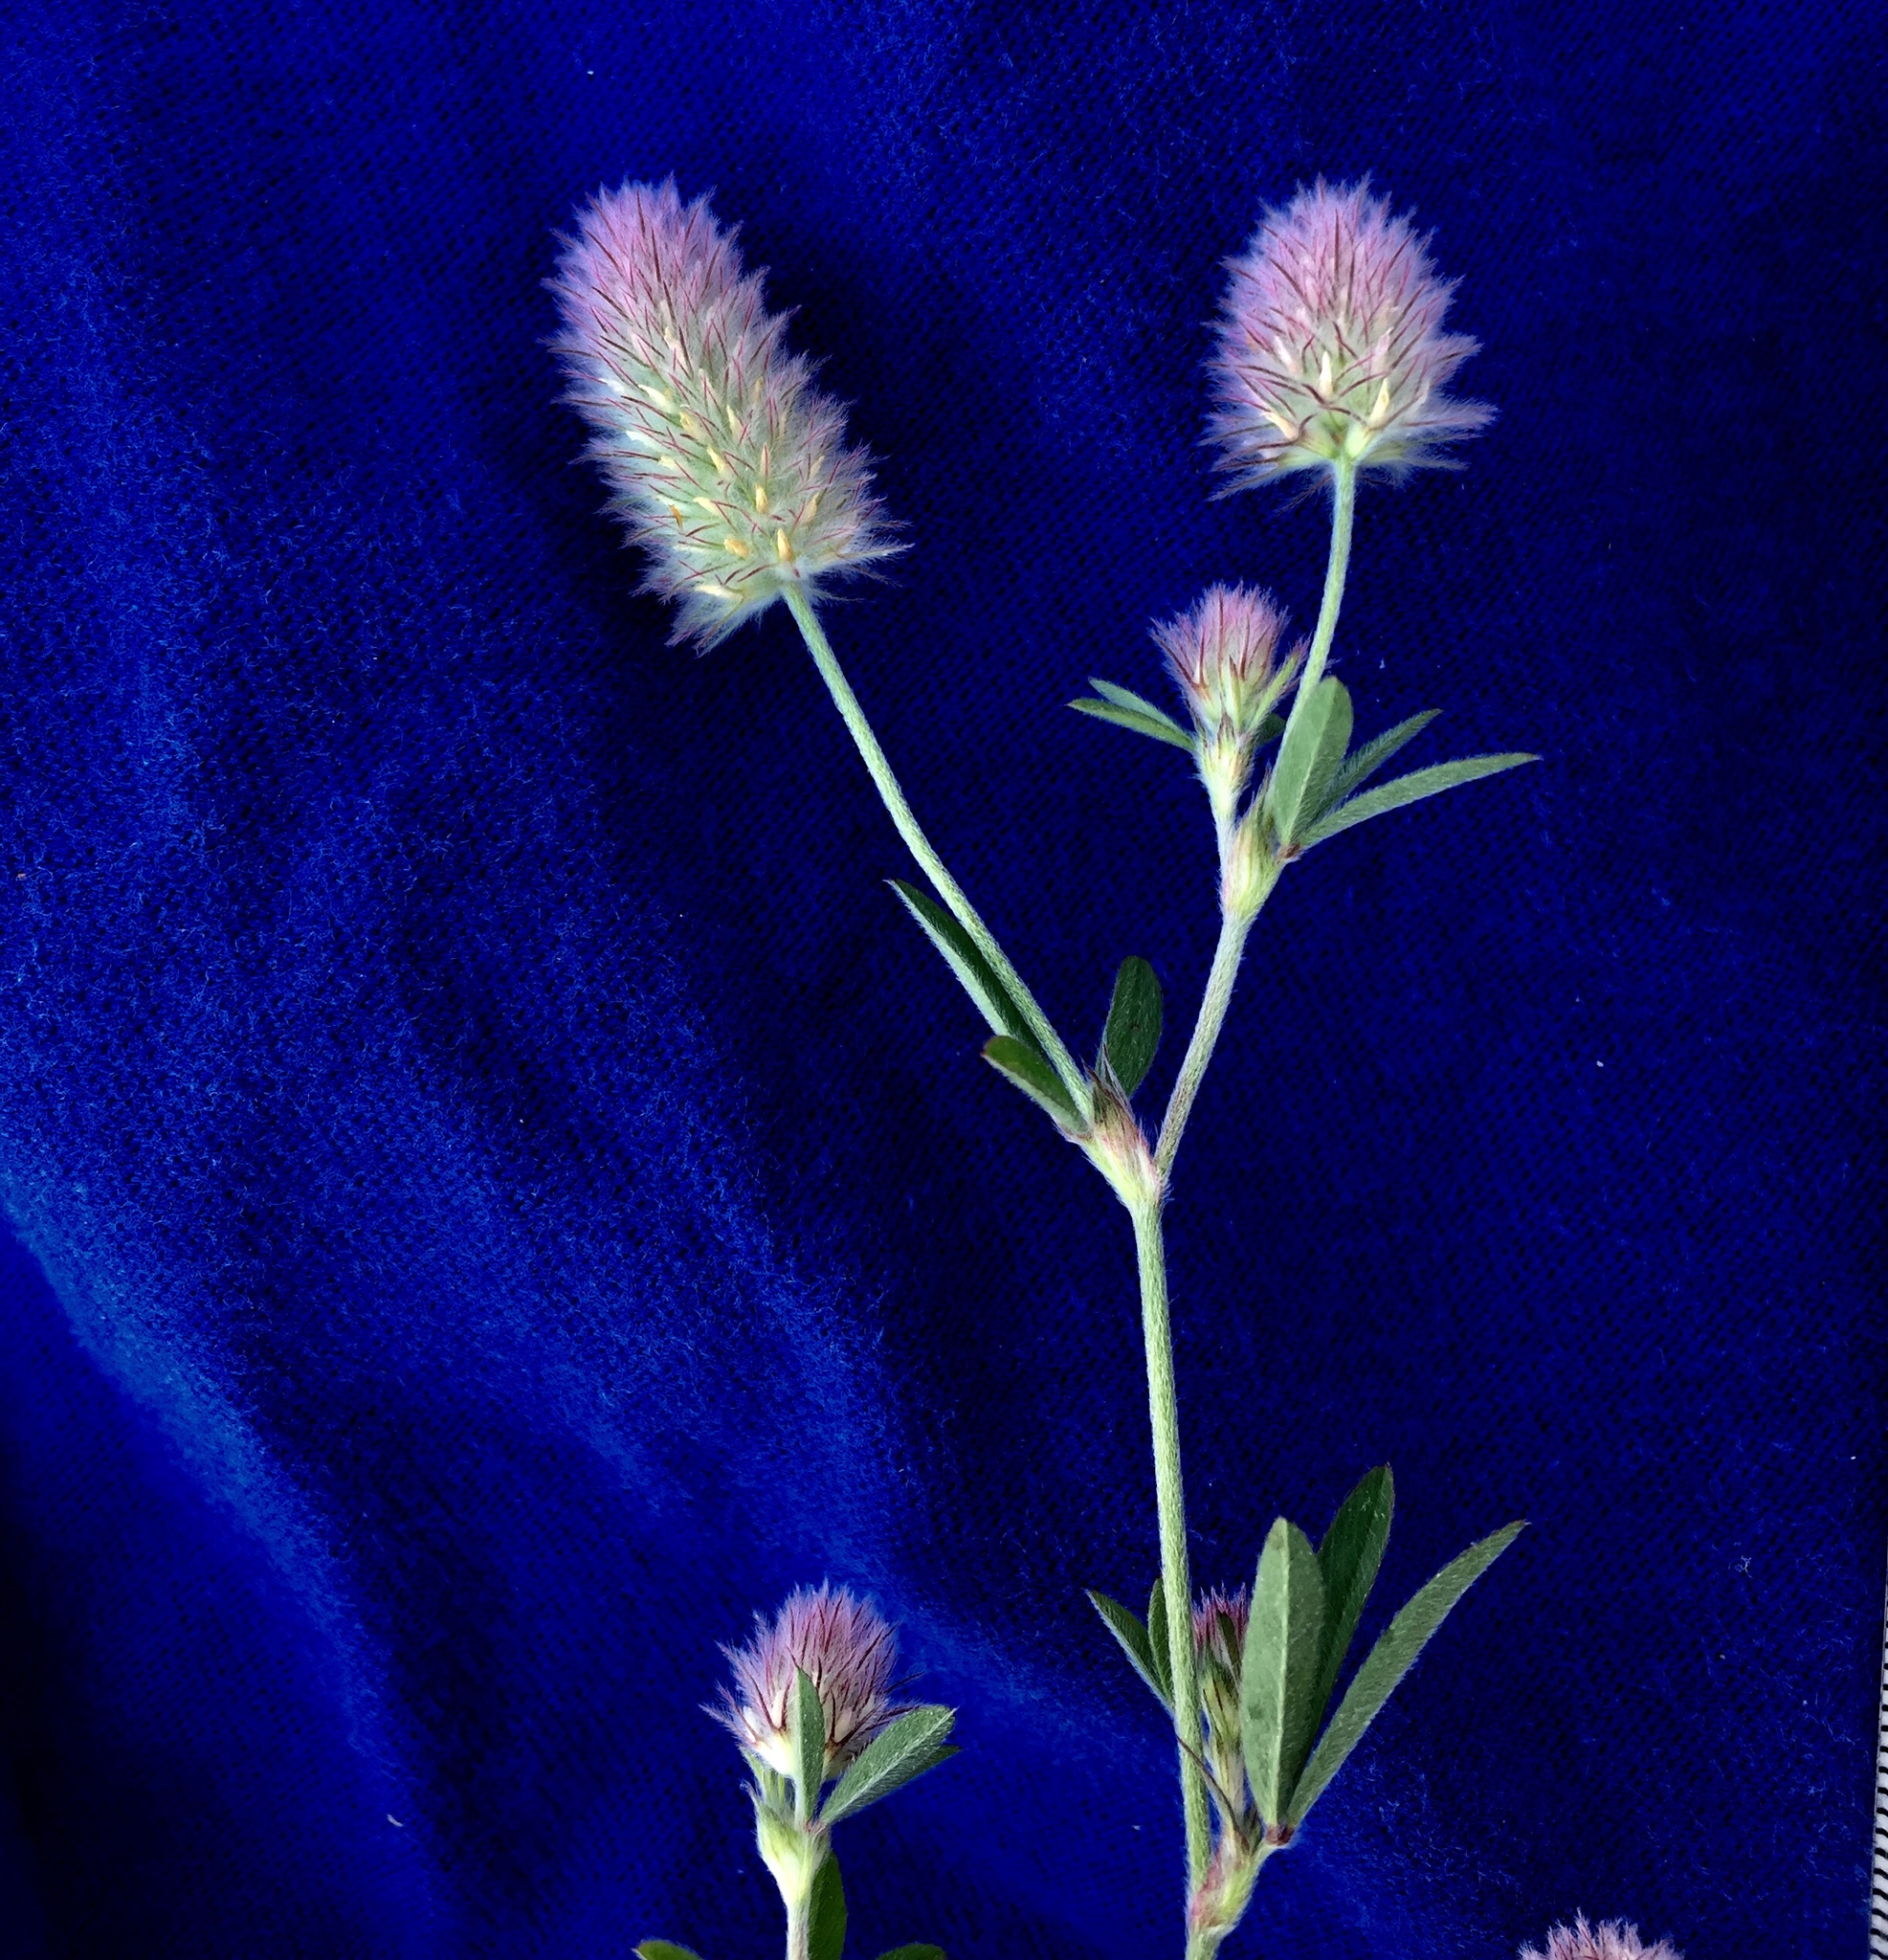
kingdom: Plantae
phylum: Tracheophyta
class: Magnoliopsida
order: Fabales
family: Fabaceae
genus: Trifolium
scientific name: Trifolium arvense
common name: Hare's-foot clover
